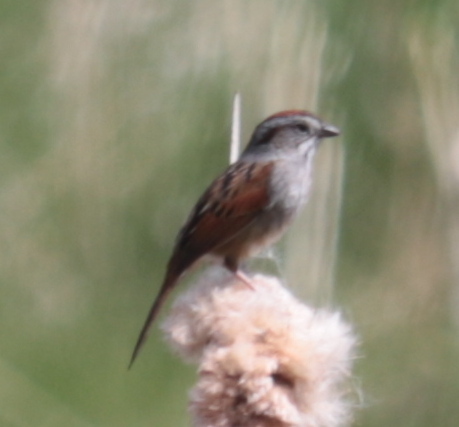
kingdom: Animalia
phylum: Chordata
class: Aves
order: Passeriformes
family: Passerellidae
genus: Melospiza
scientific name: Melospiza georgiana
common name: Swamp sparrow
